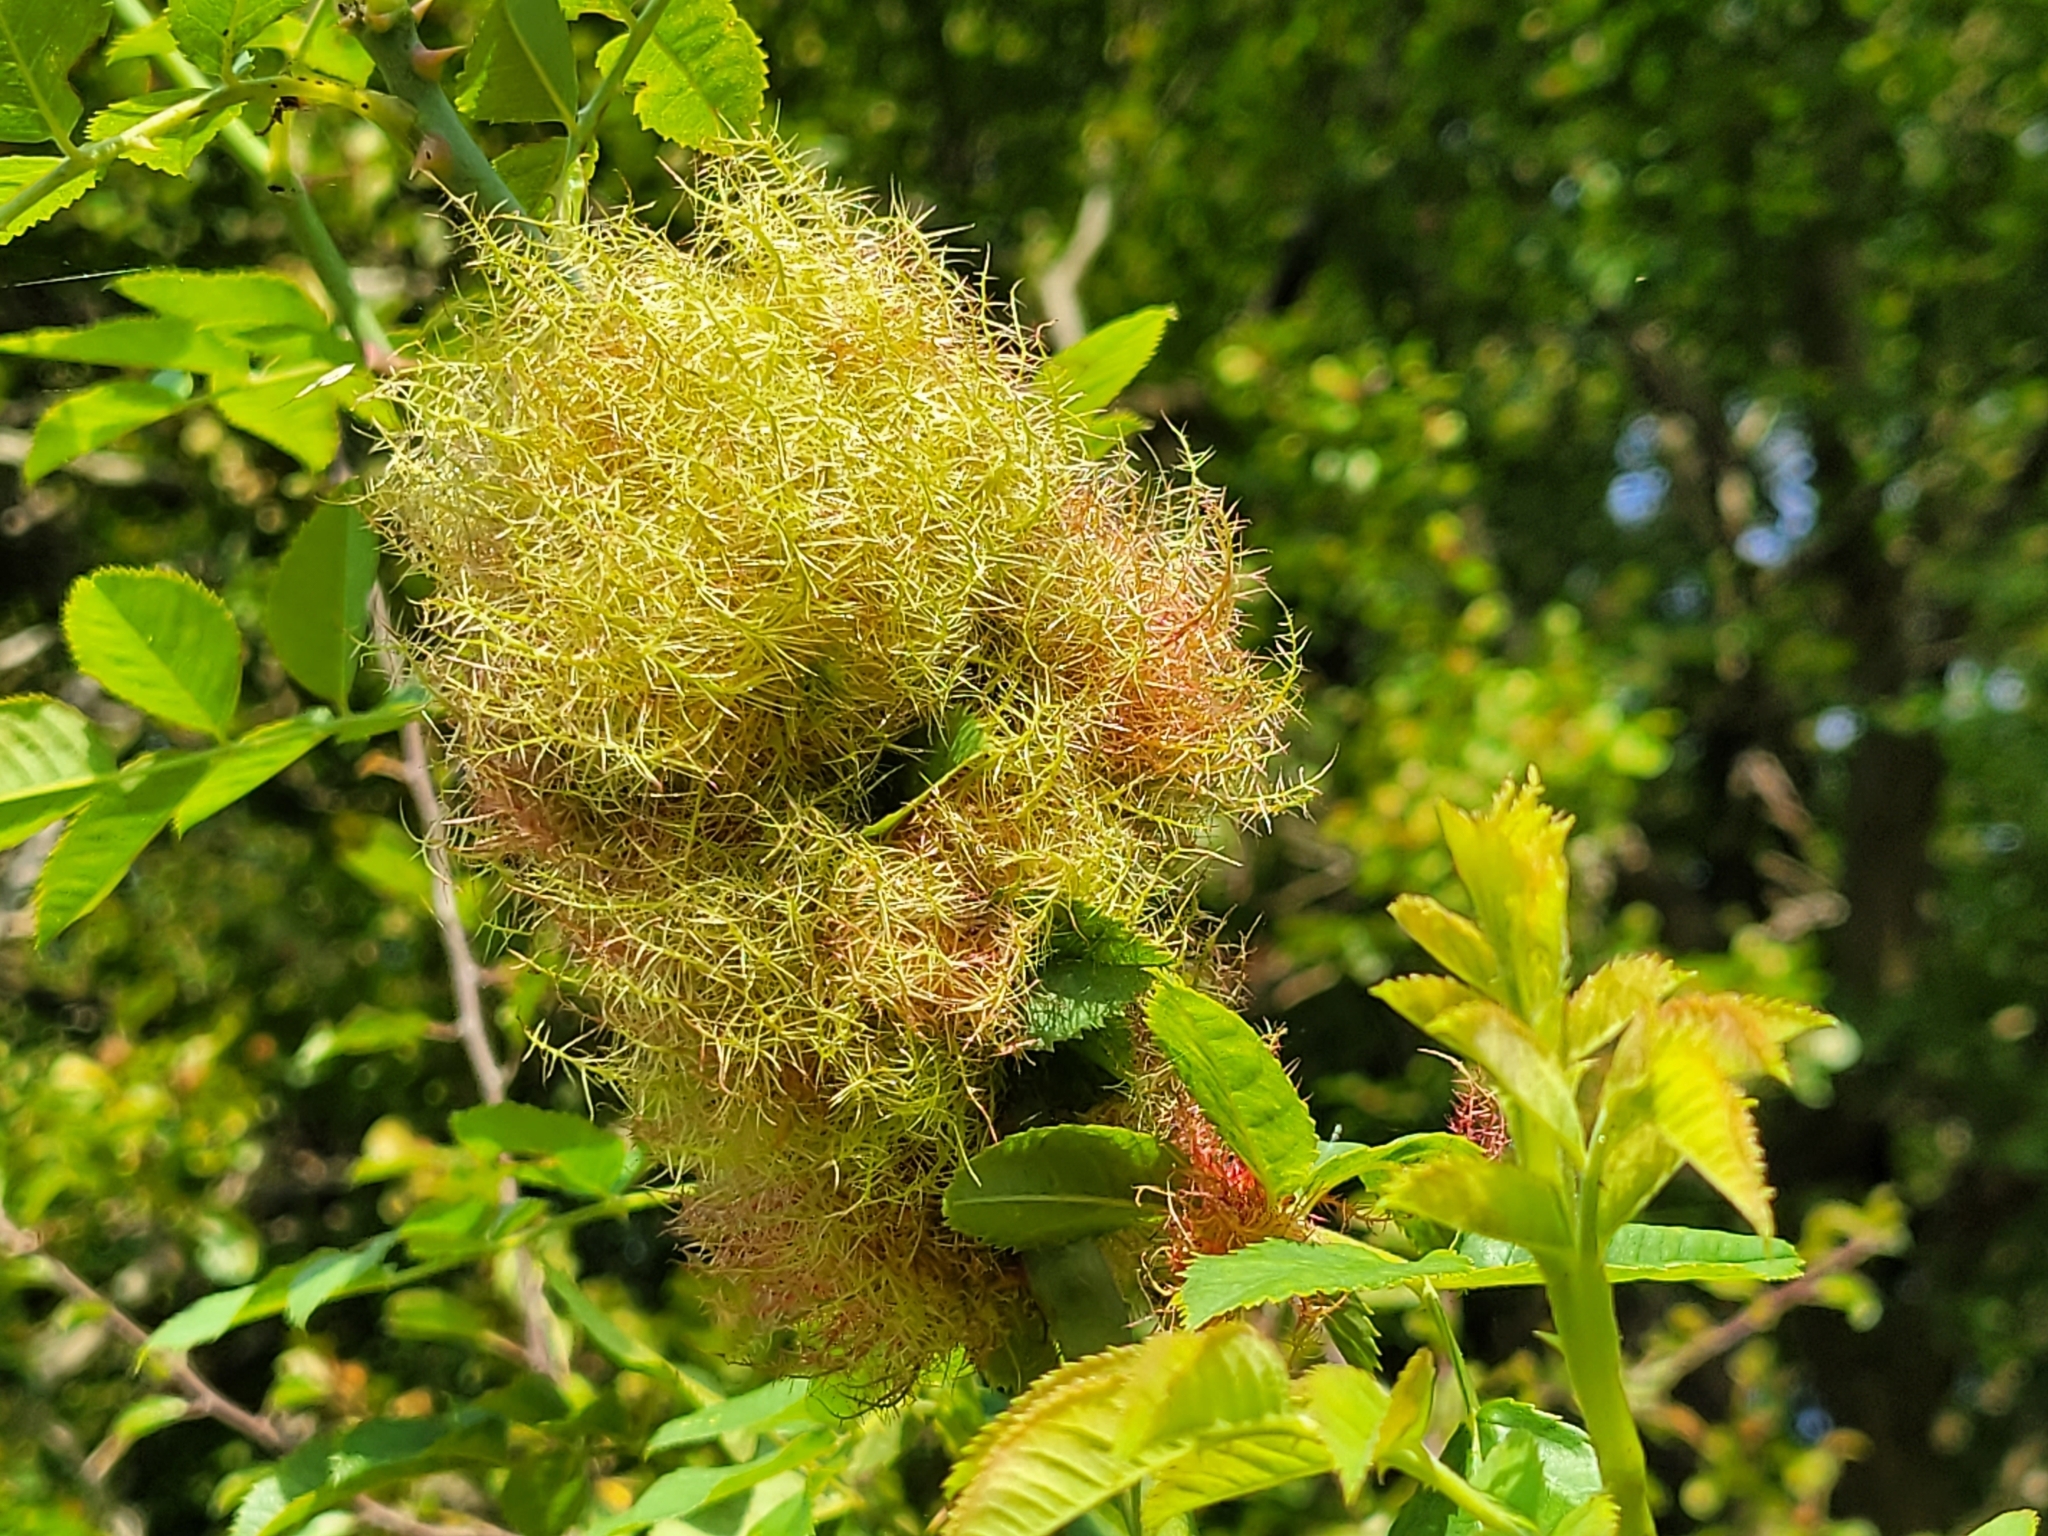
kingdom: Animalia
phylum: Arthropoda
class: Insecta
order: Hymenoptera
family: Cynipidae
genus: Diplolepis
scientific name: Diplolepis rosae
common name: Bedeguar gall
